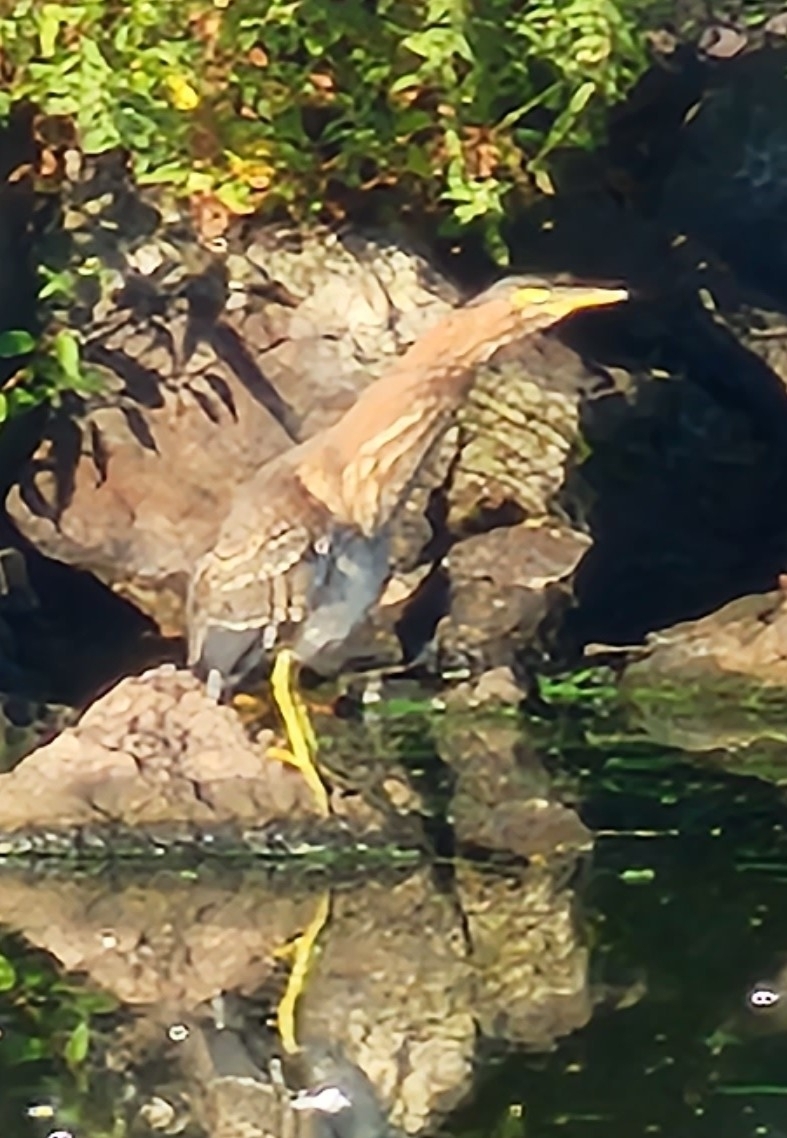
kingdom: Animalia
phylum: Chordata
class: Aves
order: Pelecaniformes
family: Ardeidae
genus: Butorides
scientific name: Butorides virescens
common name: Green heron
